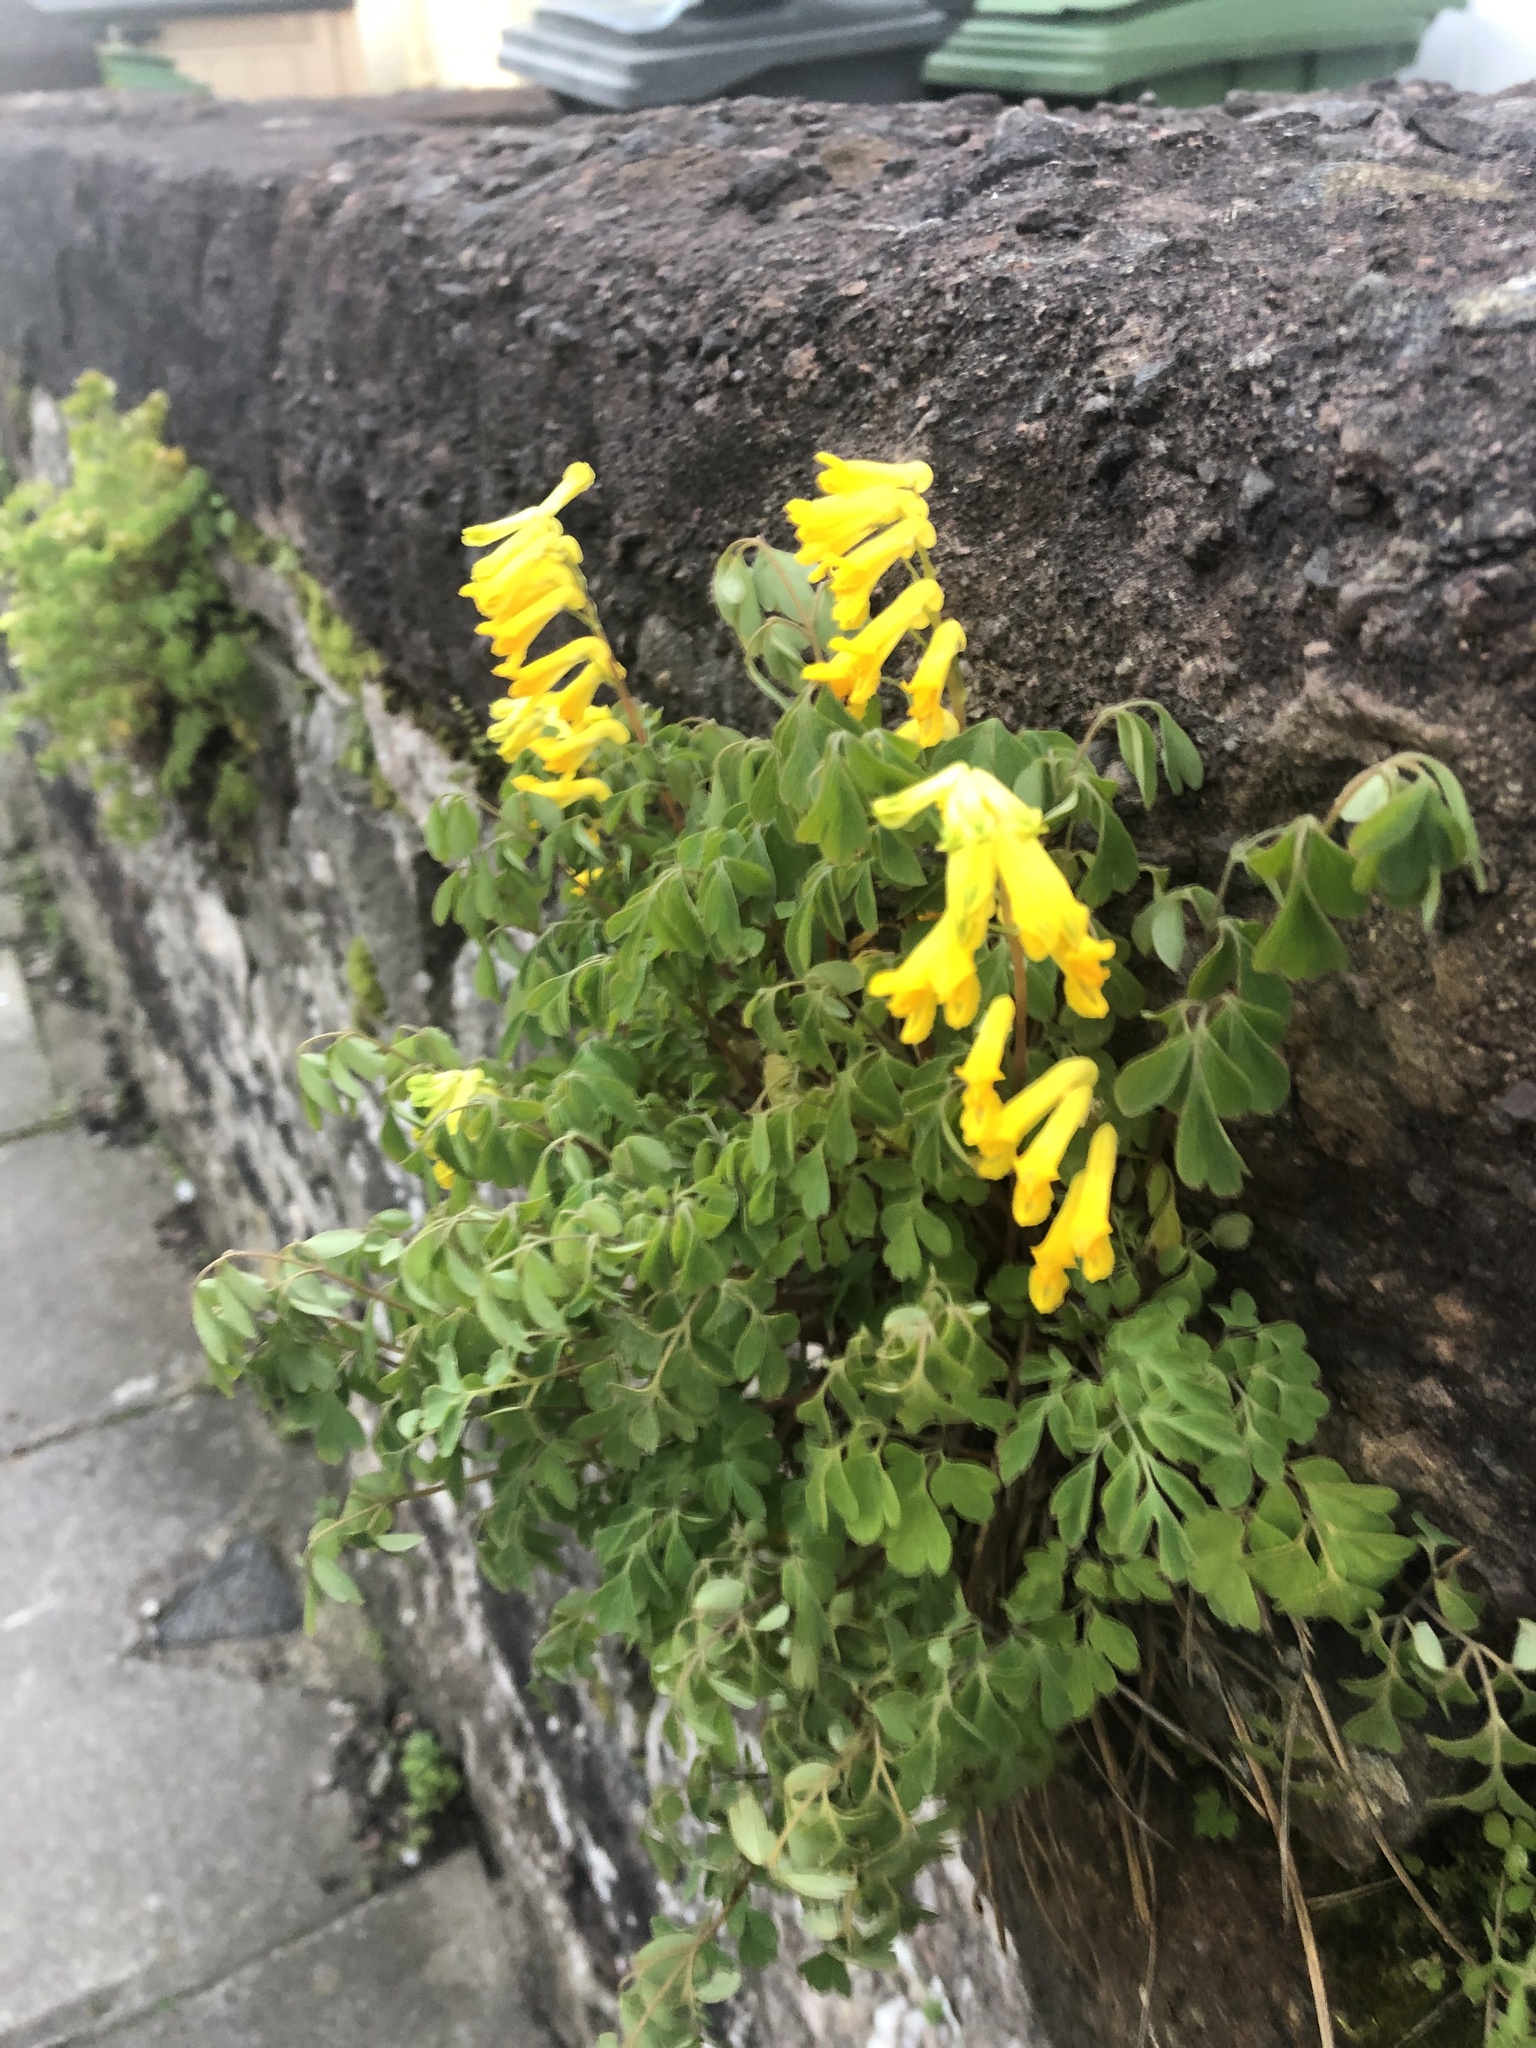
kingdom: Plantae
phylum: Tracheophyta
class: Magnoliopsida
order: Ranunculales
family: Papaveraceae
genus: Pseudofumaria
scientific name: Pseudofumaria lutea
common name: Yellow corydalis
